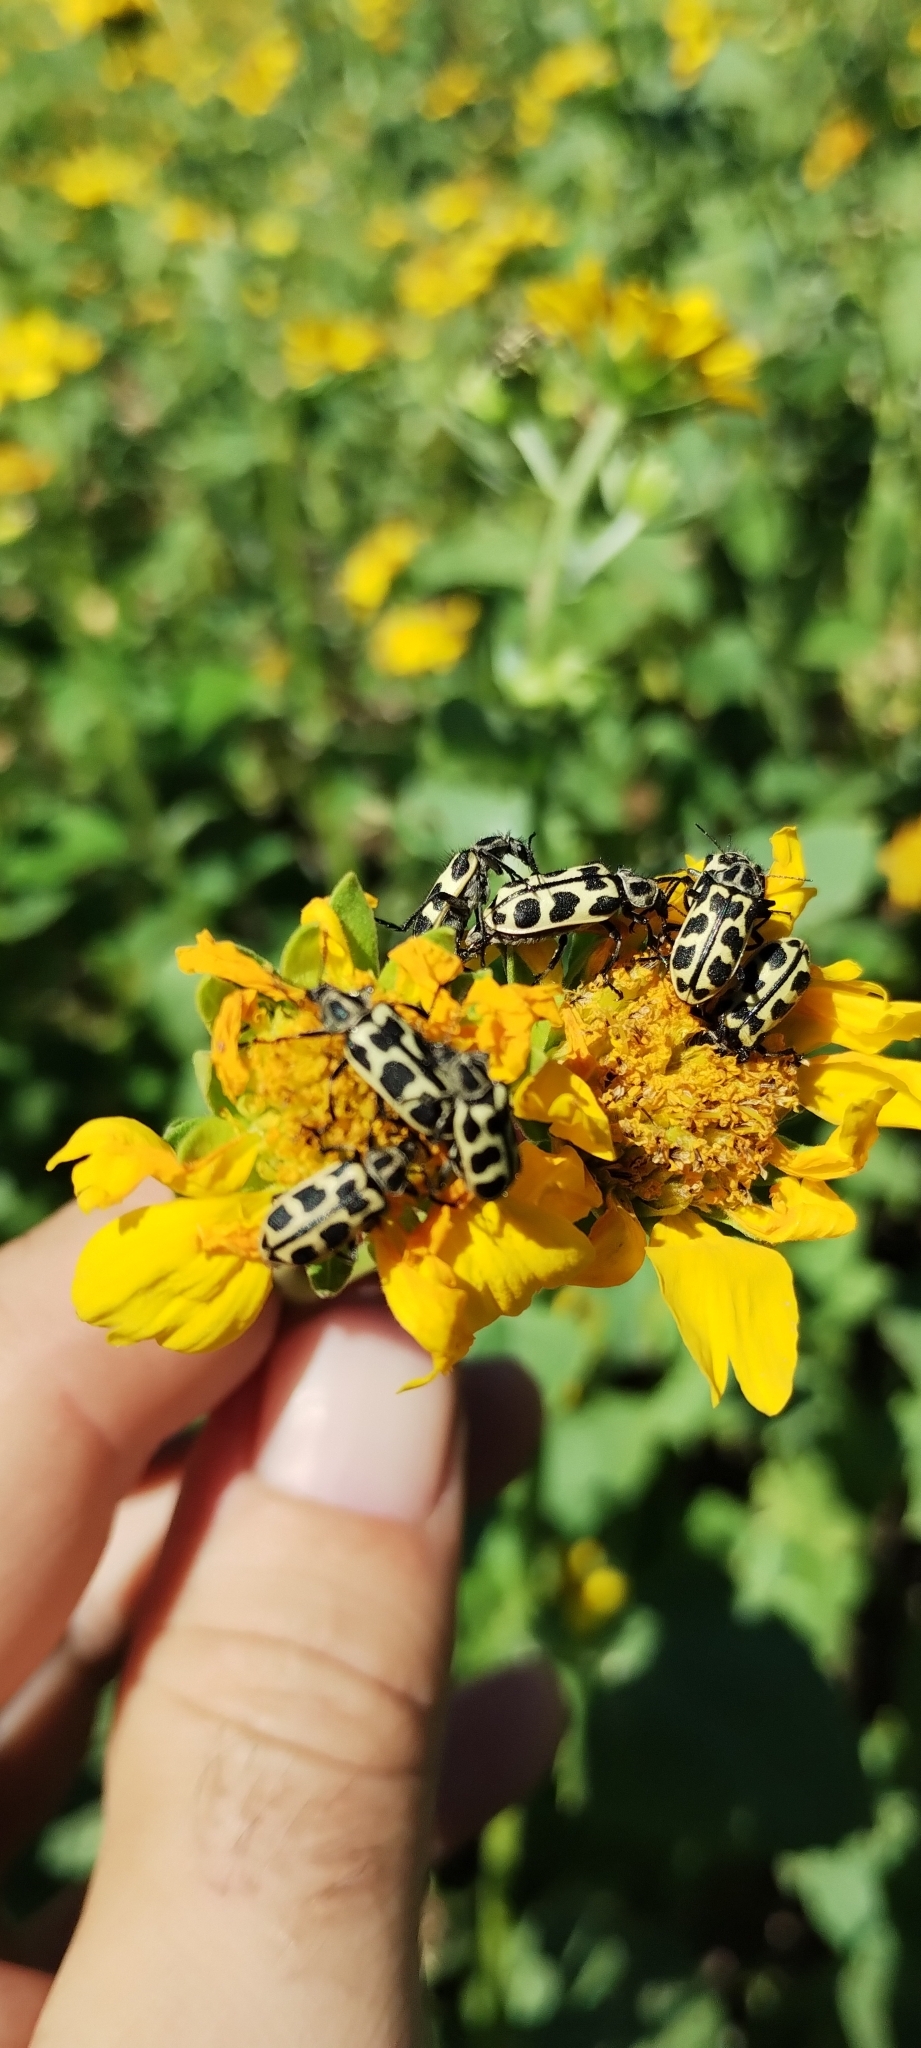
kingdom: Animalia
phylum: Arthropoda
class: Insecta
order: Coleoptera
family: Melyridae
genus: Astylus
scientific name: Astylus atromaculatus
